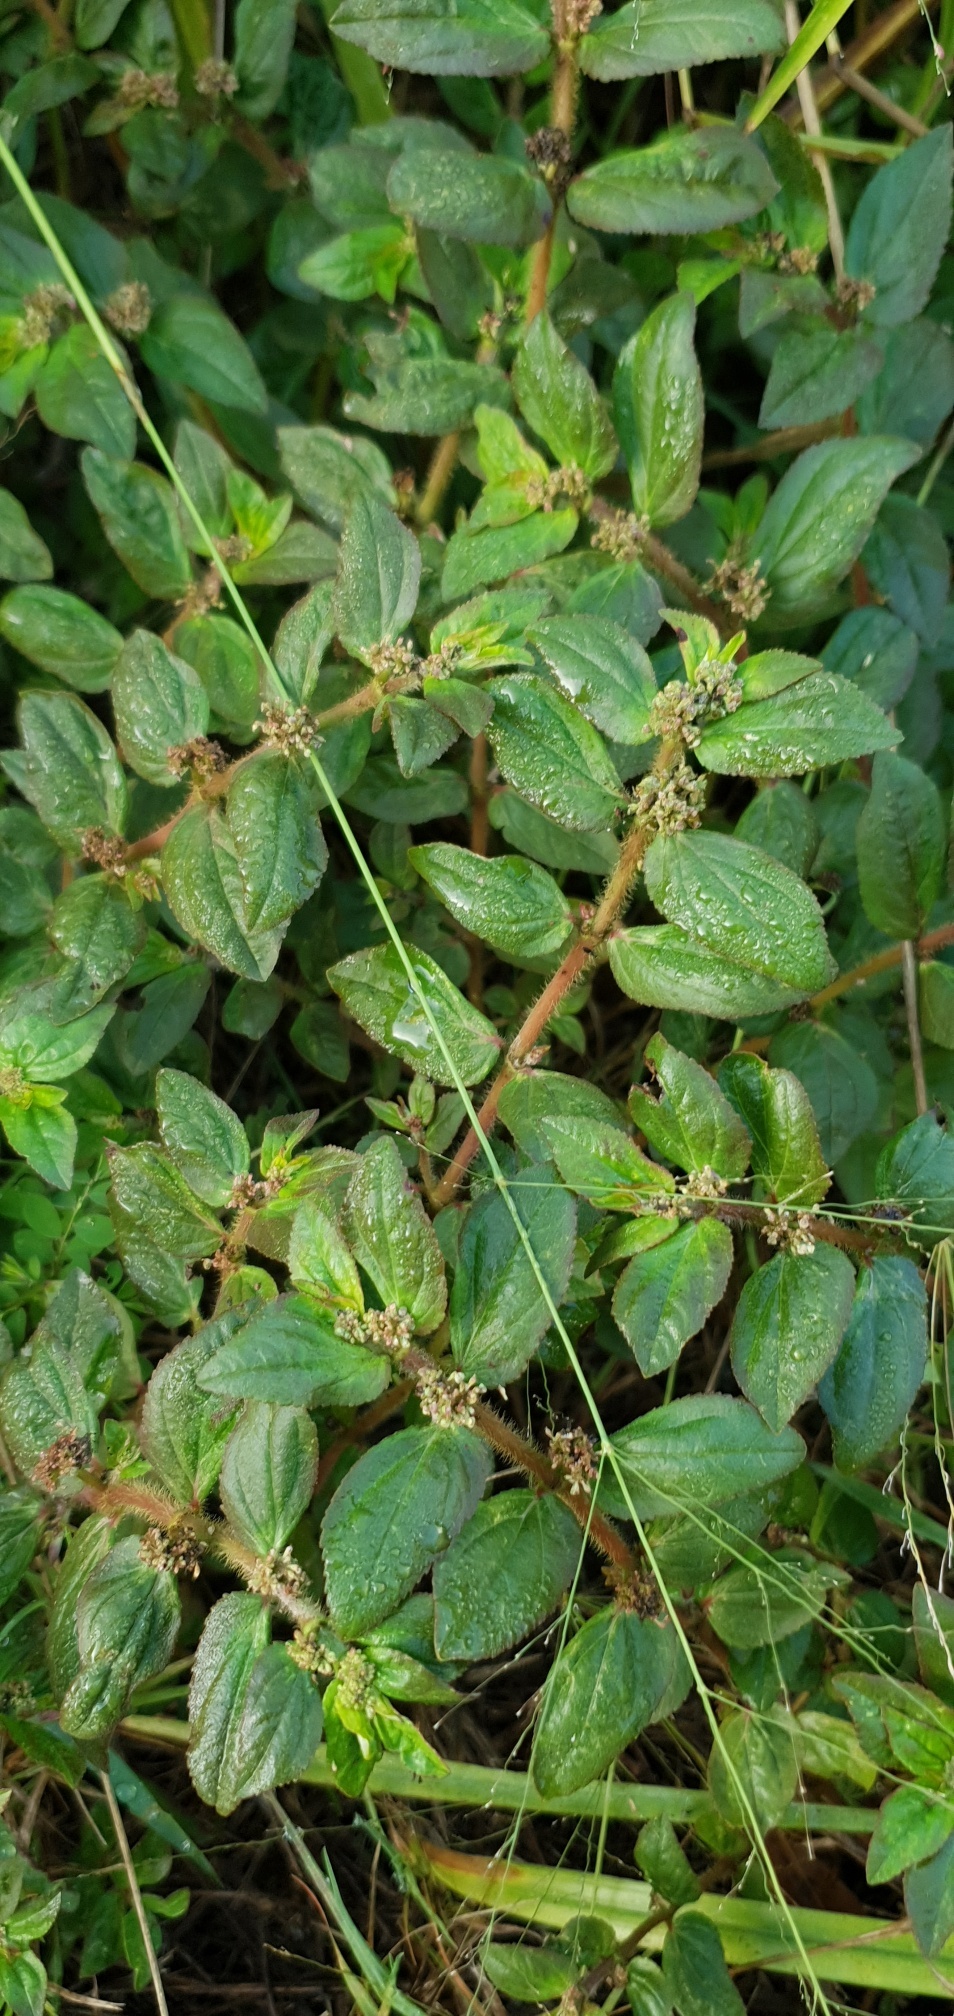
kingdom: Plantae
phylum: Tracheophyta
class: Magnoliopsida
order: Malpighiales
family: Euphorbiaceae
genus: Euphorbia
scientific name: Euphorbia hirta
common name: Pillpod sandmat
